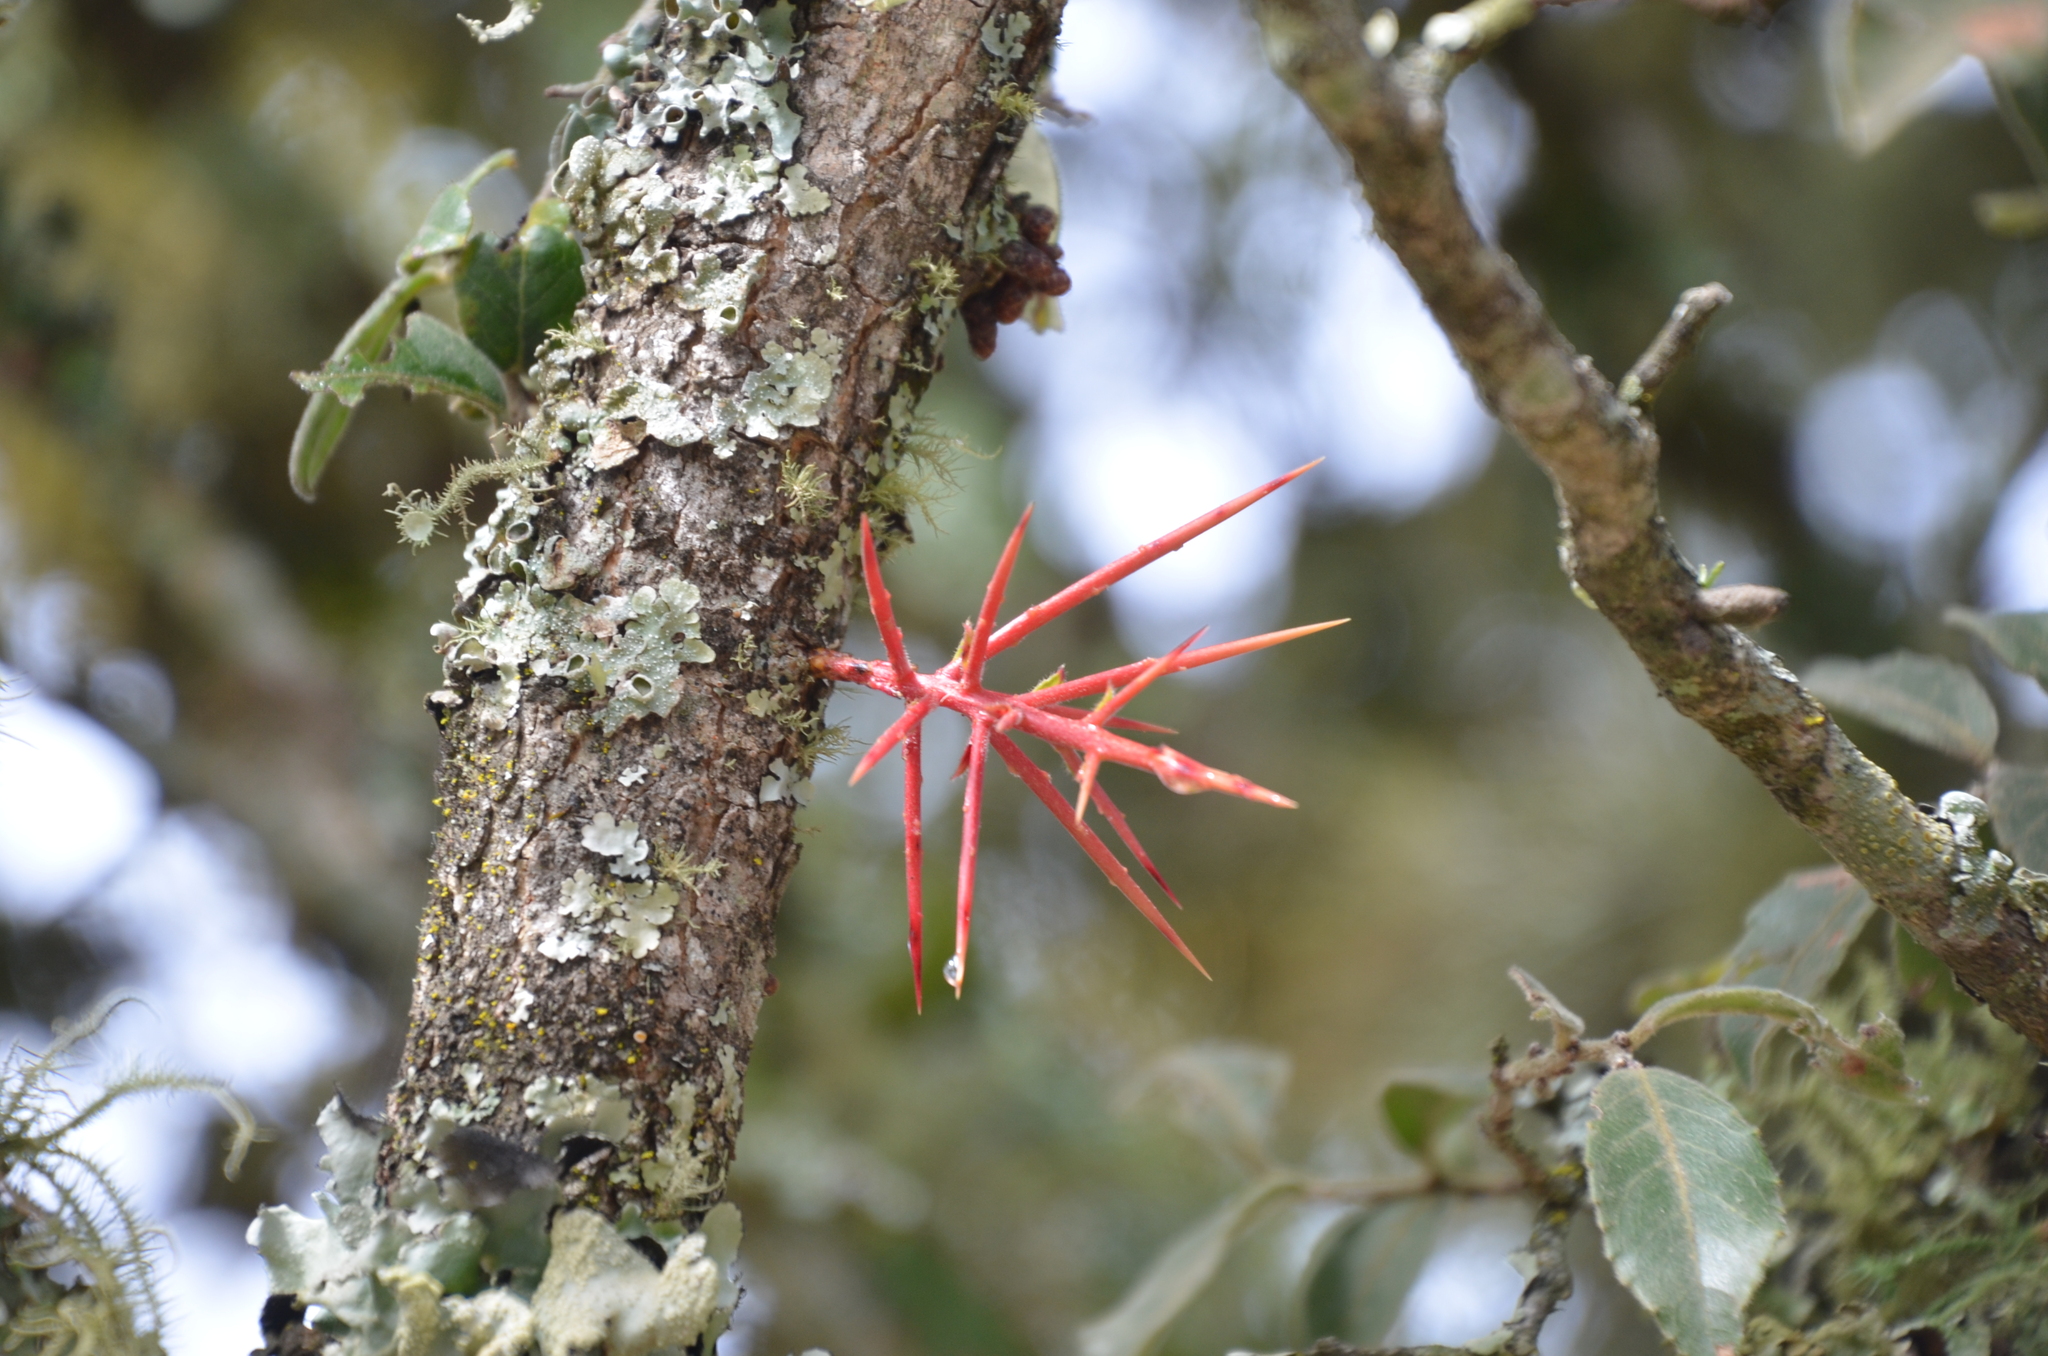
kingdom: Plantae
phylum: Tracheophyta
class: Magnoliopsida
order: Malpighiales
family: Salicaceae
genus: Xylosma
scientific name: Xylosma pubescens
